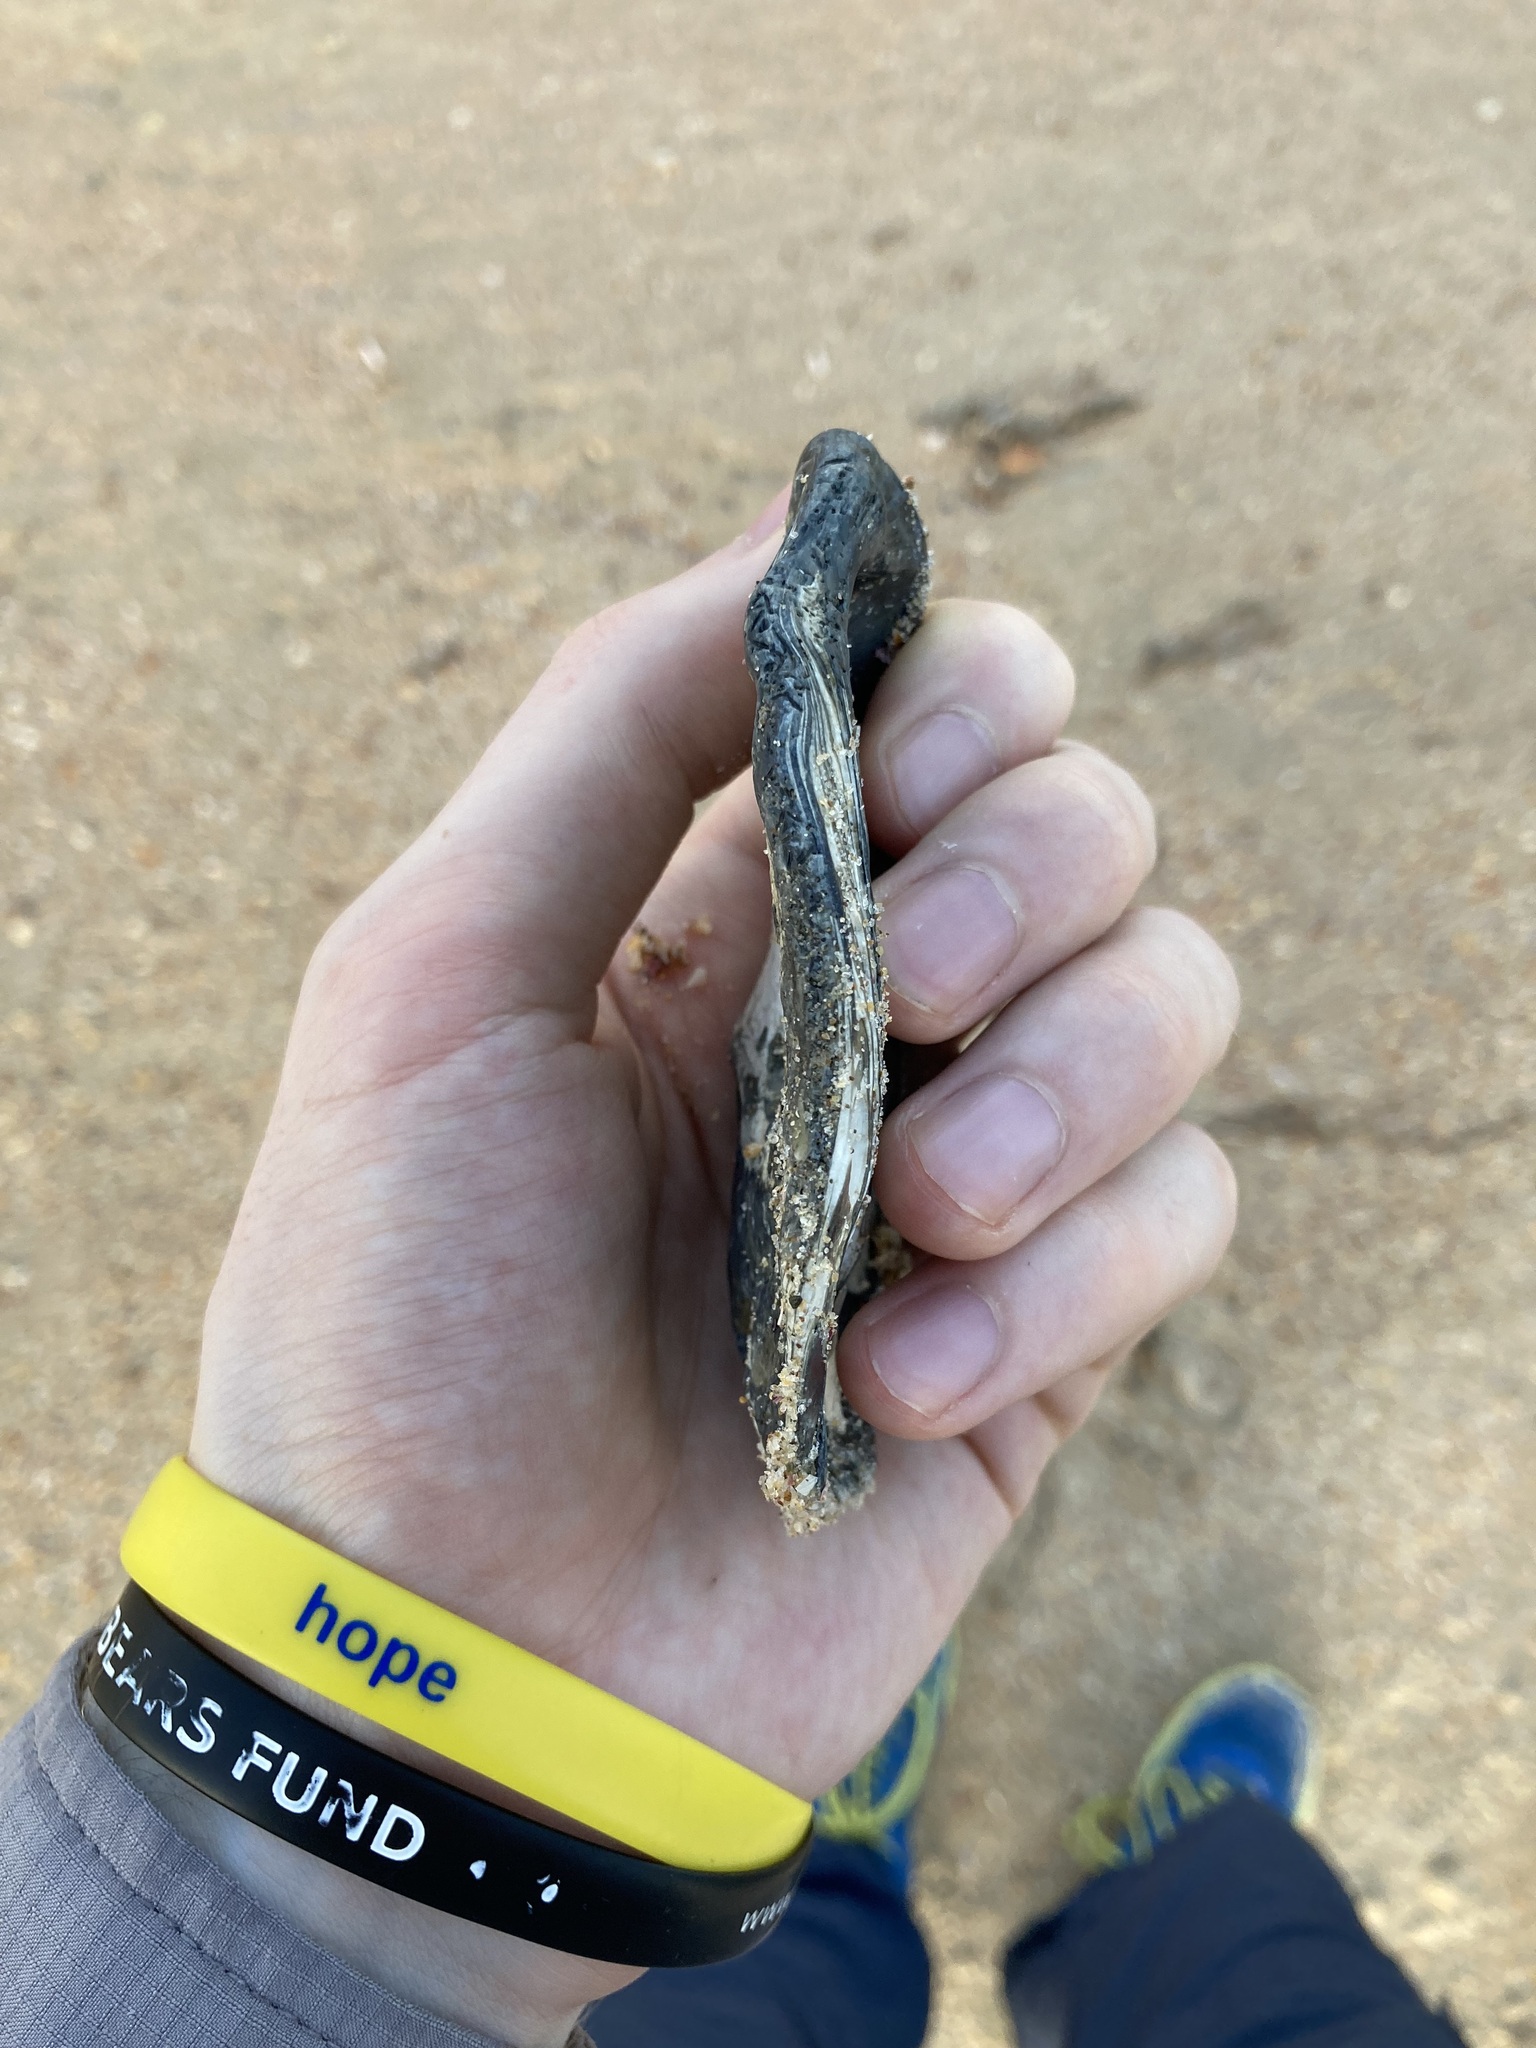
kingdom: Animalia
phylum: Mollusca
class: Bivalvia
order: Ostreida
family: Ostreidae
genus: Ostrea
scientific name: Ostrea angasi
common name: Angasi oyster
